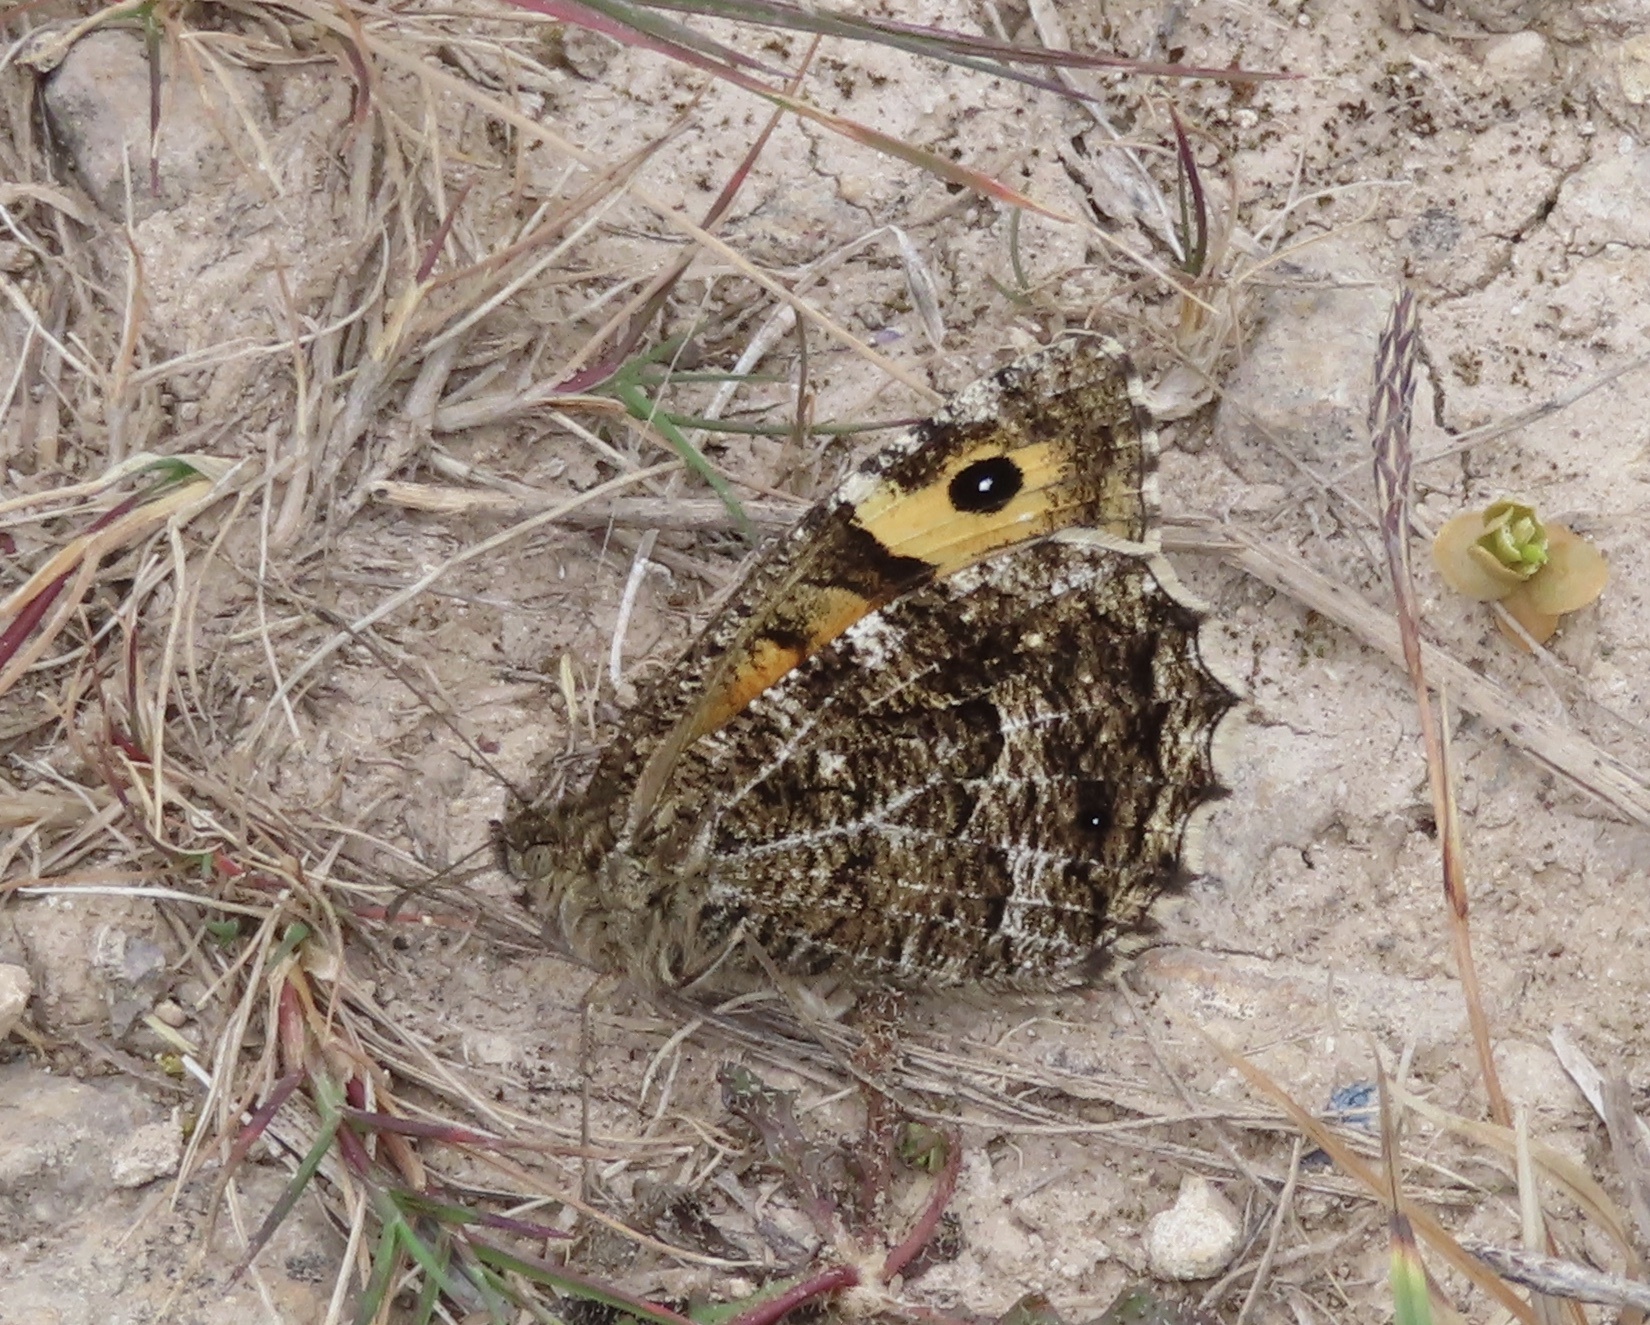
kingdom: Animalia
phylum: Arthropoda
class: Insecta
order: Lepidoptera
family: Nymphalidae
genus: Hipparchia
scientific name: Hipparchia semele
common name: Grayling
